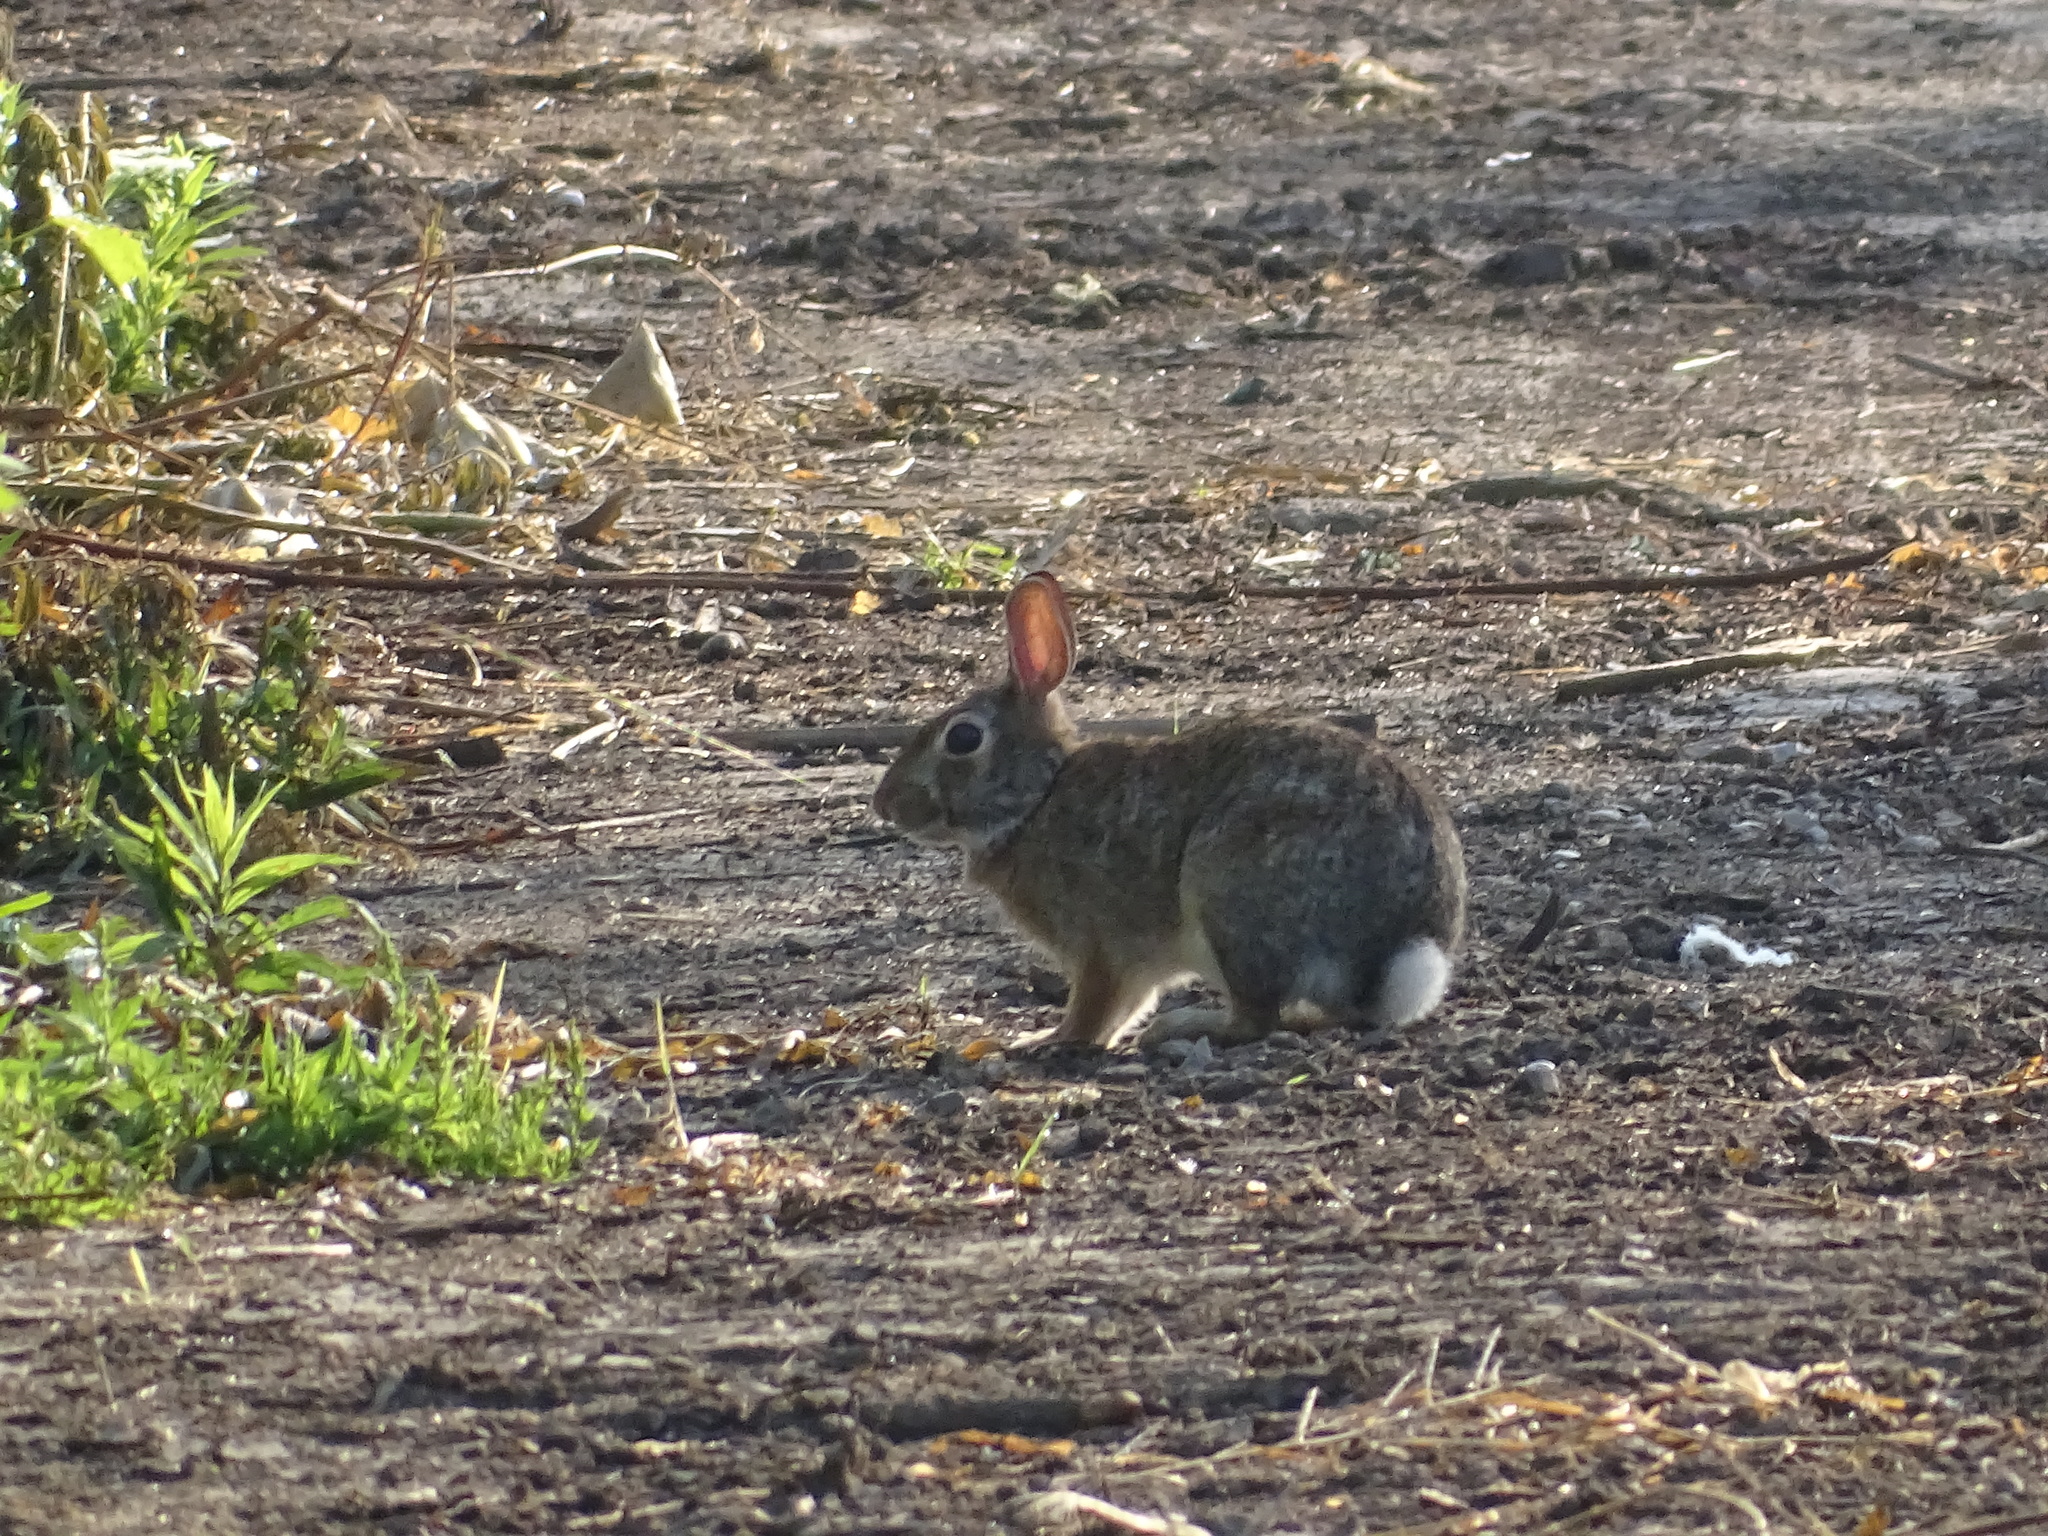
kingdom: Animalia
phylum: Chordata
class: Mammalia
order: Lagomorpha
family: Leporidae
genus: Sylvilagus
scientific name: Sylvilagus floridanus
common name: Eastern cottontail
